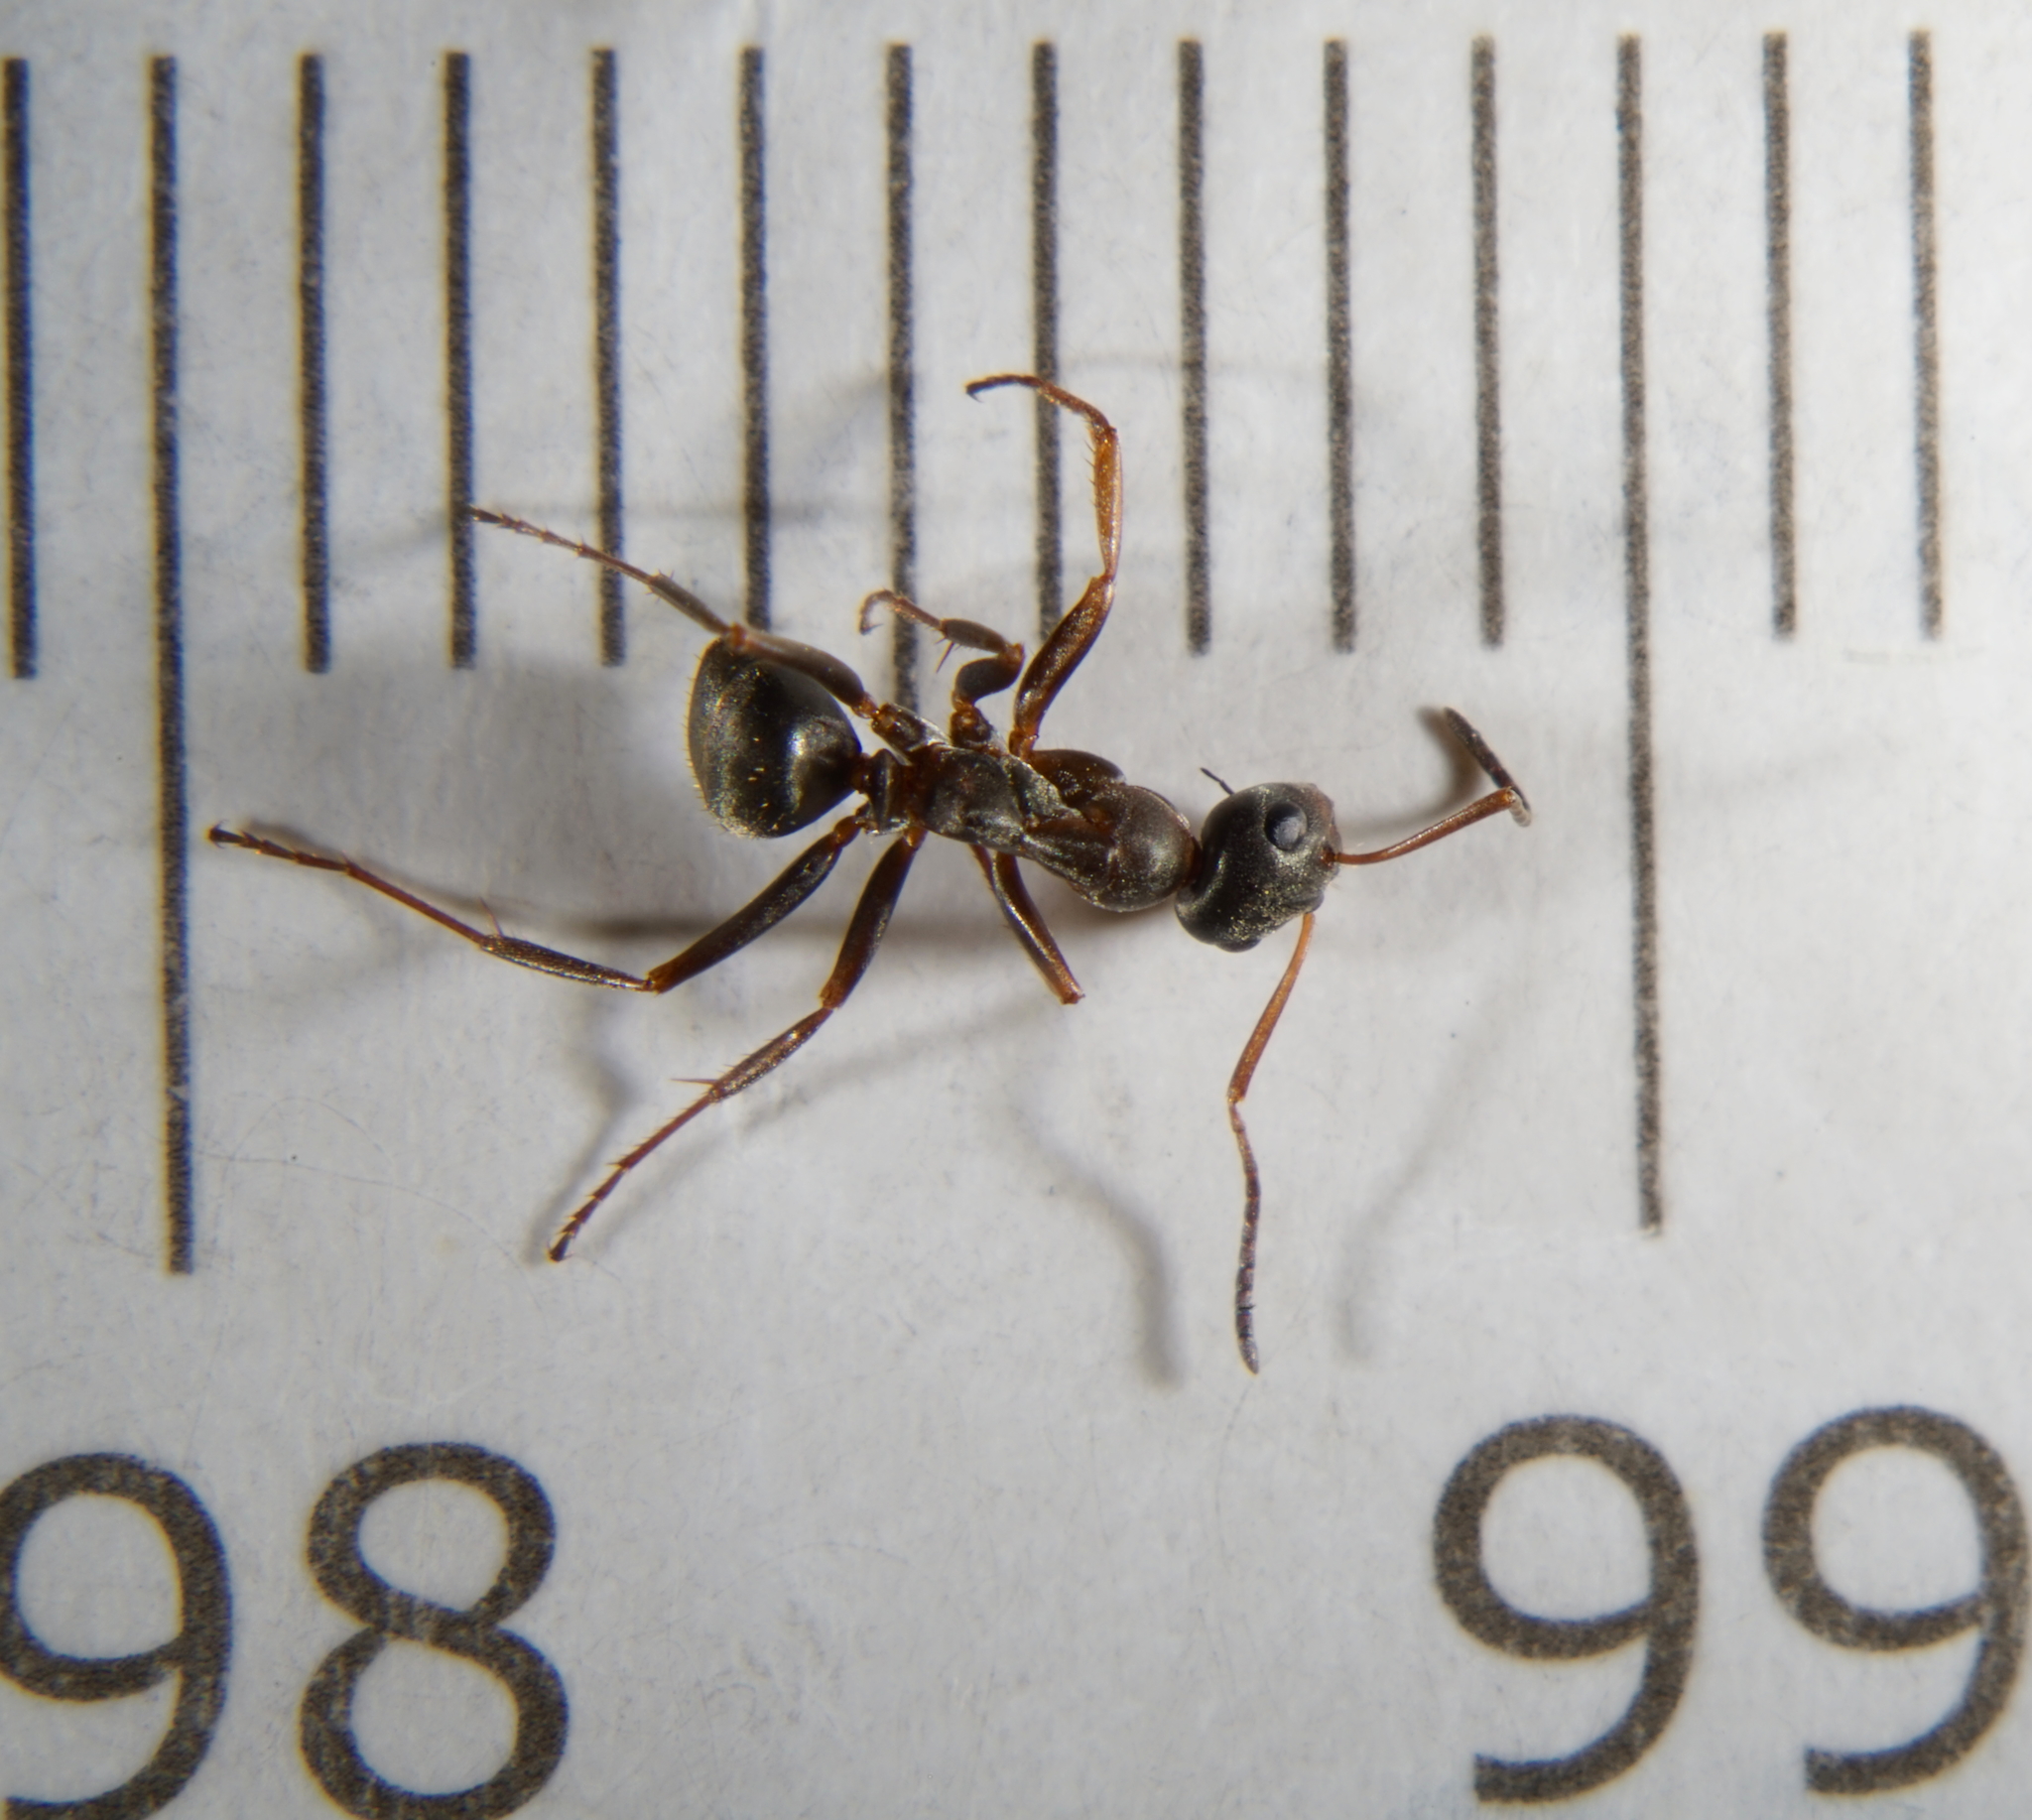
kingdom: Animalia
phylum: Arthropoda
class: Insecta
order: Hymenoptera
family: Formicidae
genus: Formica
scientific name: Formica cunicularia
